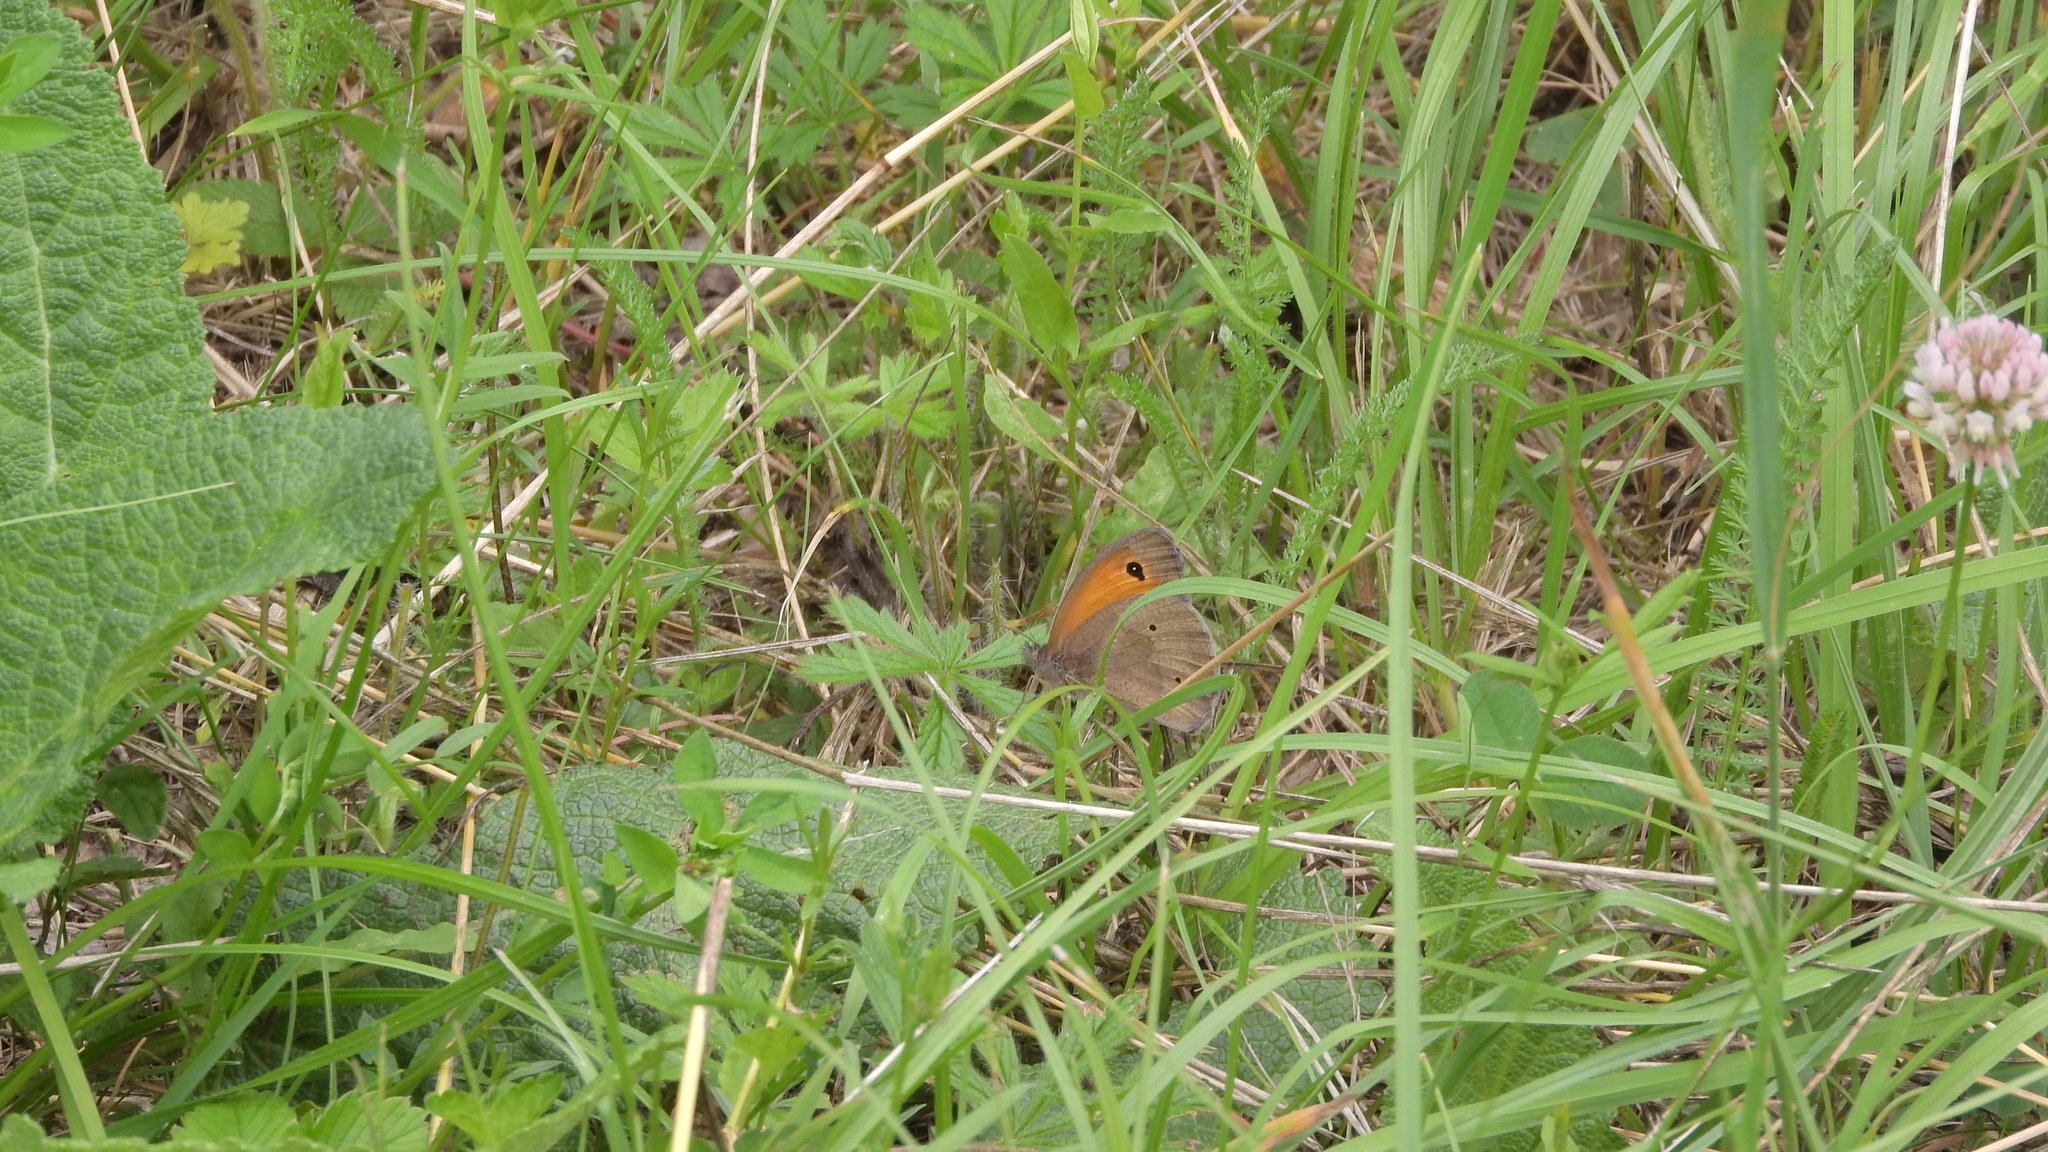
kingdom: Animalia
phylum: Arthropoda
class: Insecta
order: Lepidoptera
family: Nymphalidae
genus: Maniola
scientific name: Maniola jurtina
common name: Meadow brown
